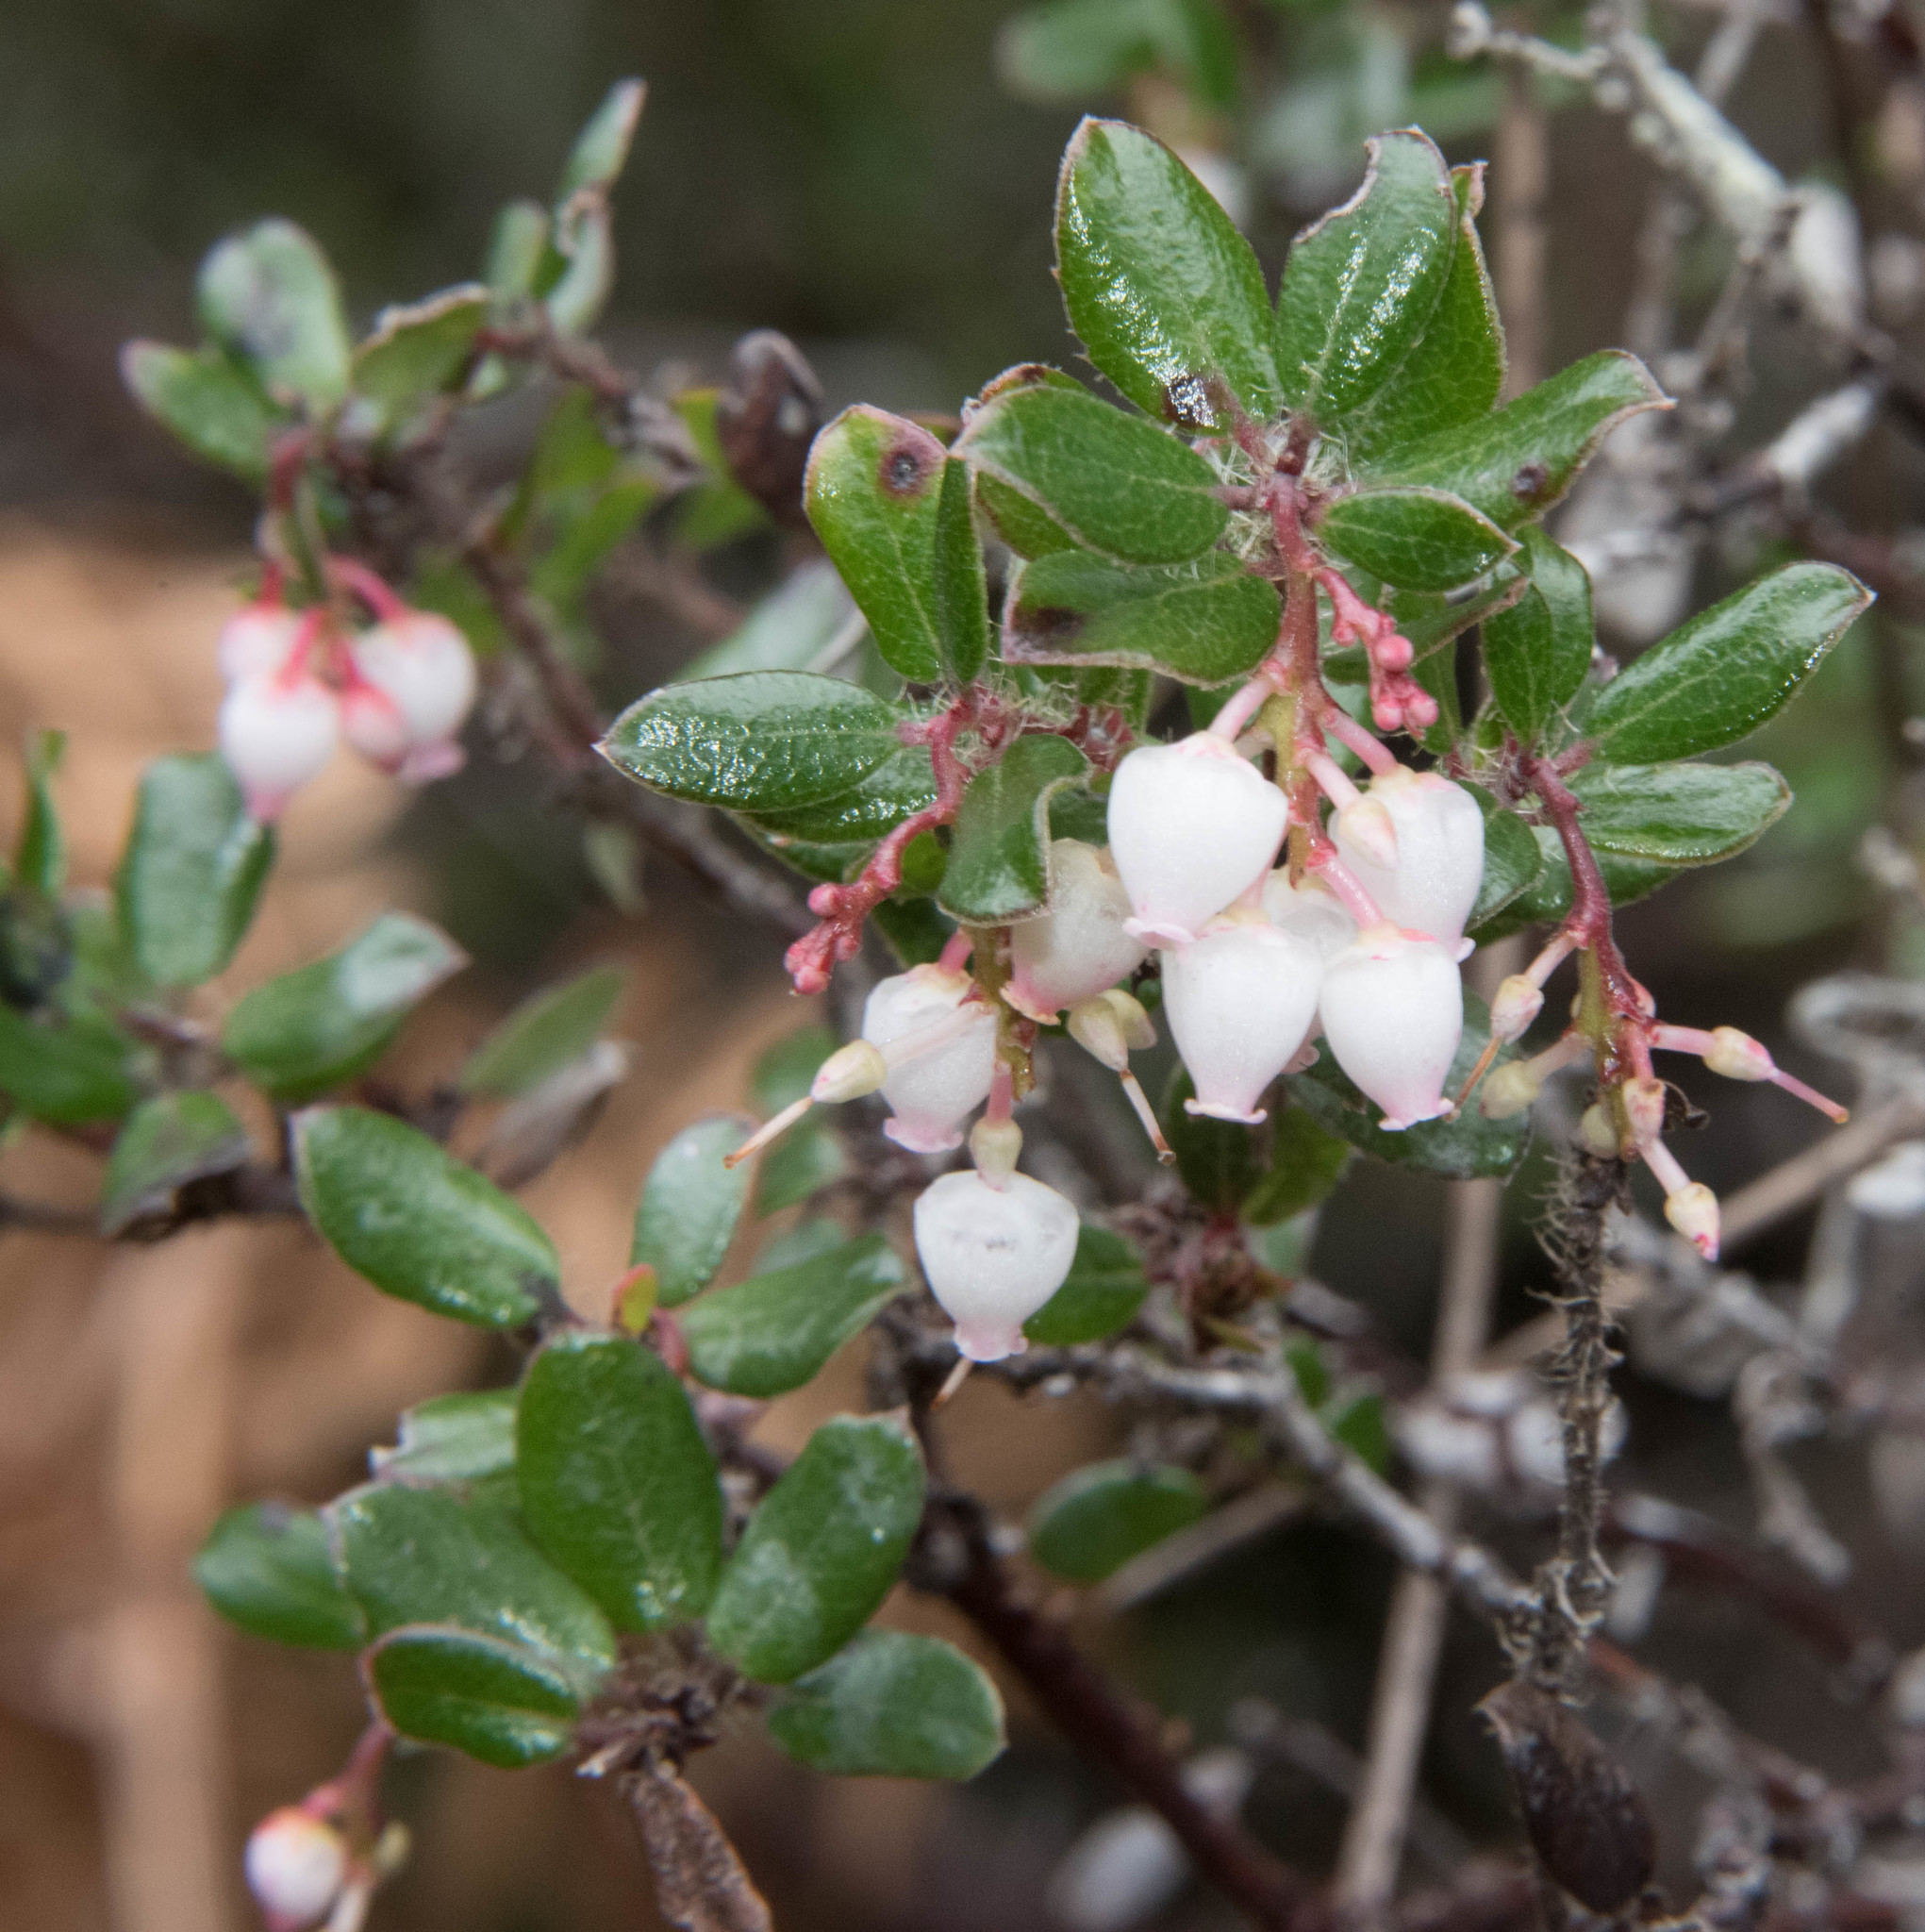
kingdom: Plantae
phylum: Tracheophyta
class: Magnoliopsida
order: Ericales
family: Ericaceae
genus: Arctostaphylos
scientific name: Arctostaphylos nummularia
